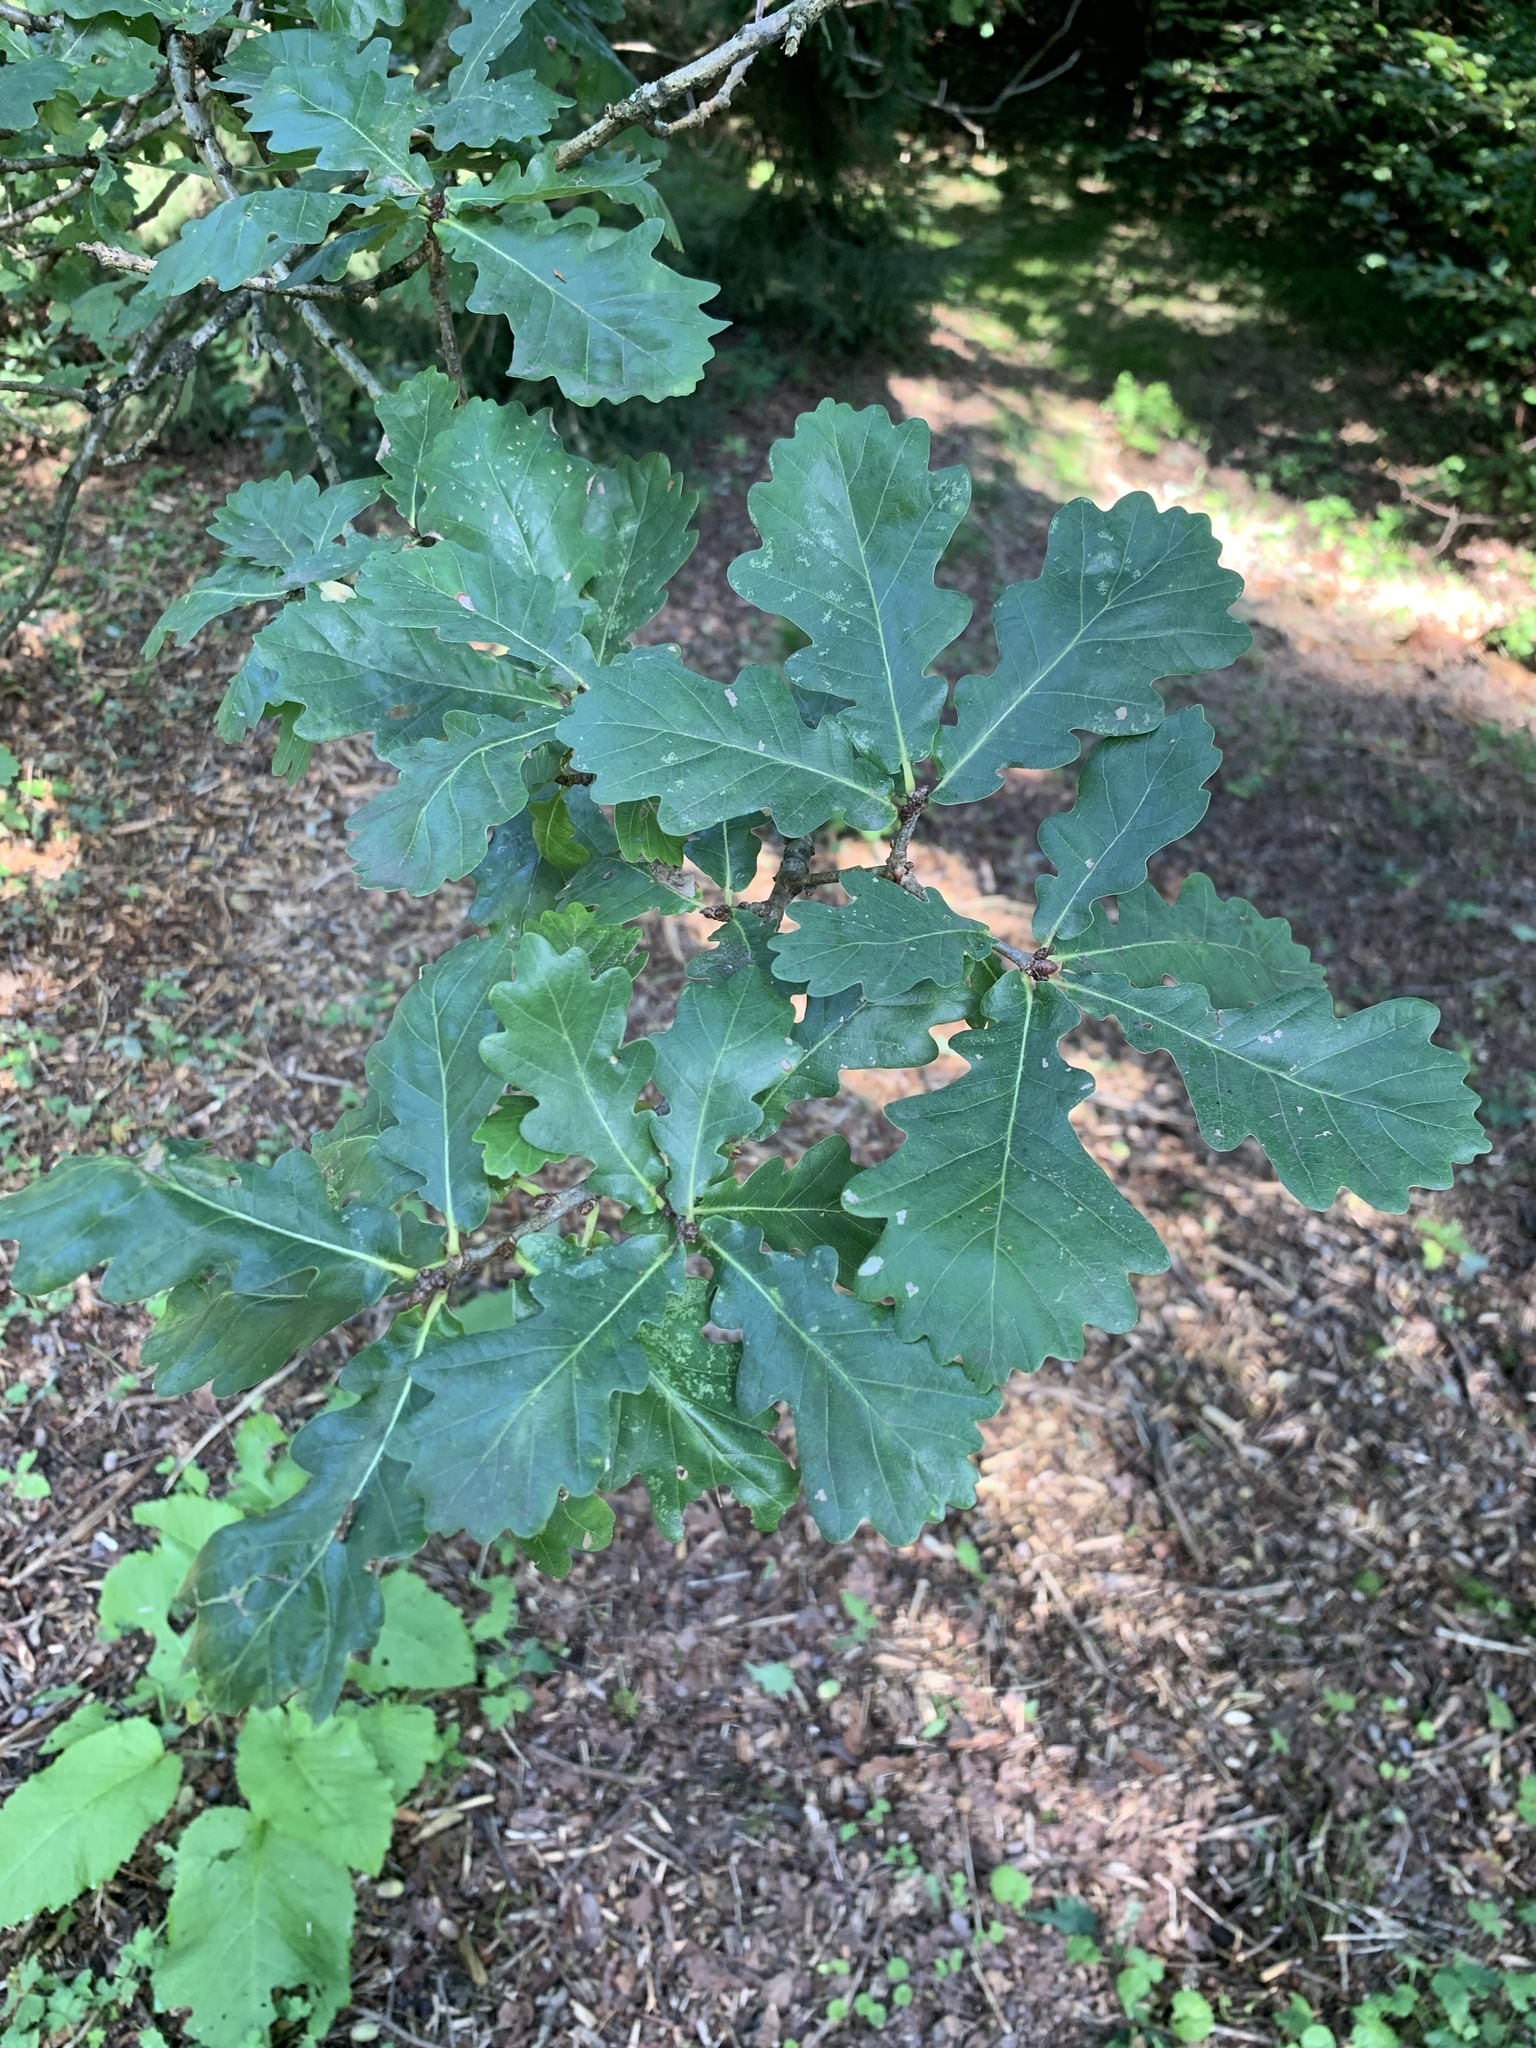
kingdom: Plantae
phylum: Tracheophyta
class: Magnoliopsida
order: Fagales
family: Fagaceae
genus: Quercus
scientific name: Quercus robur
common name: Pedunculate oak
